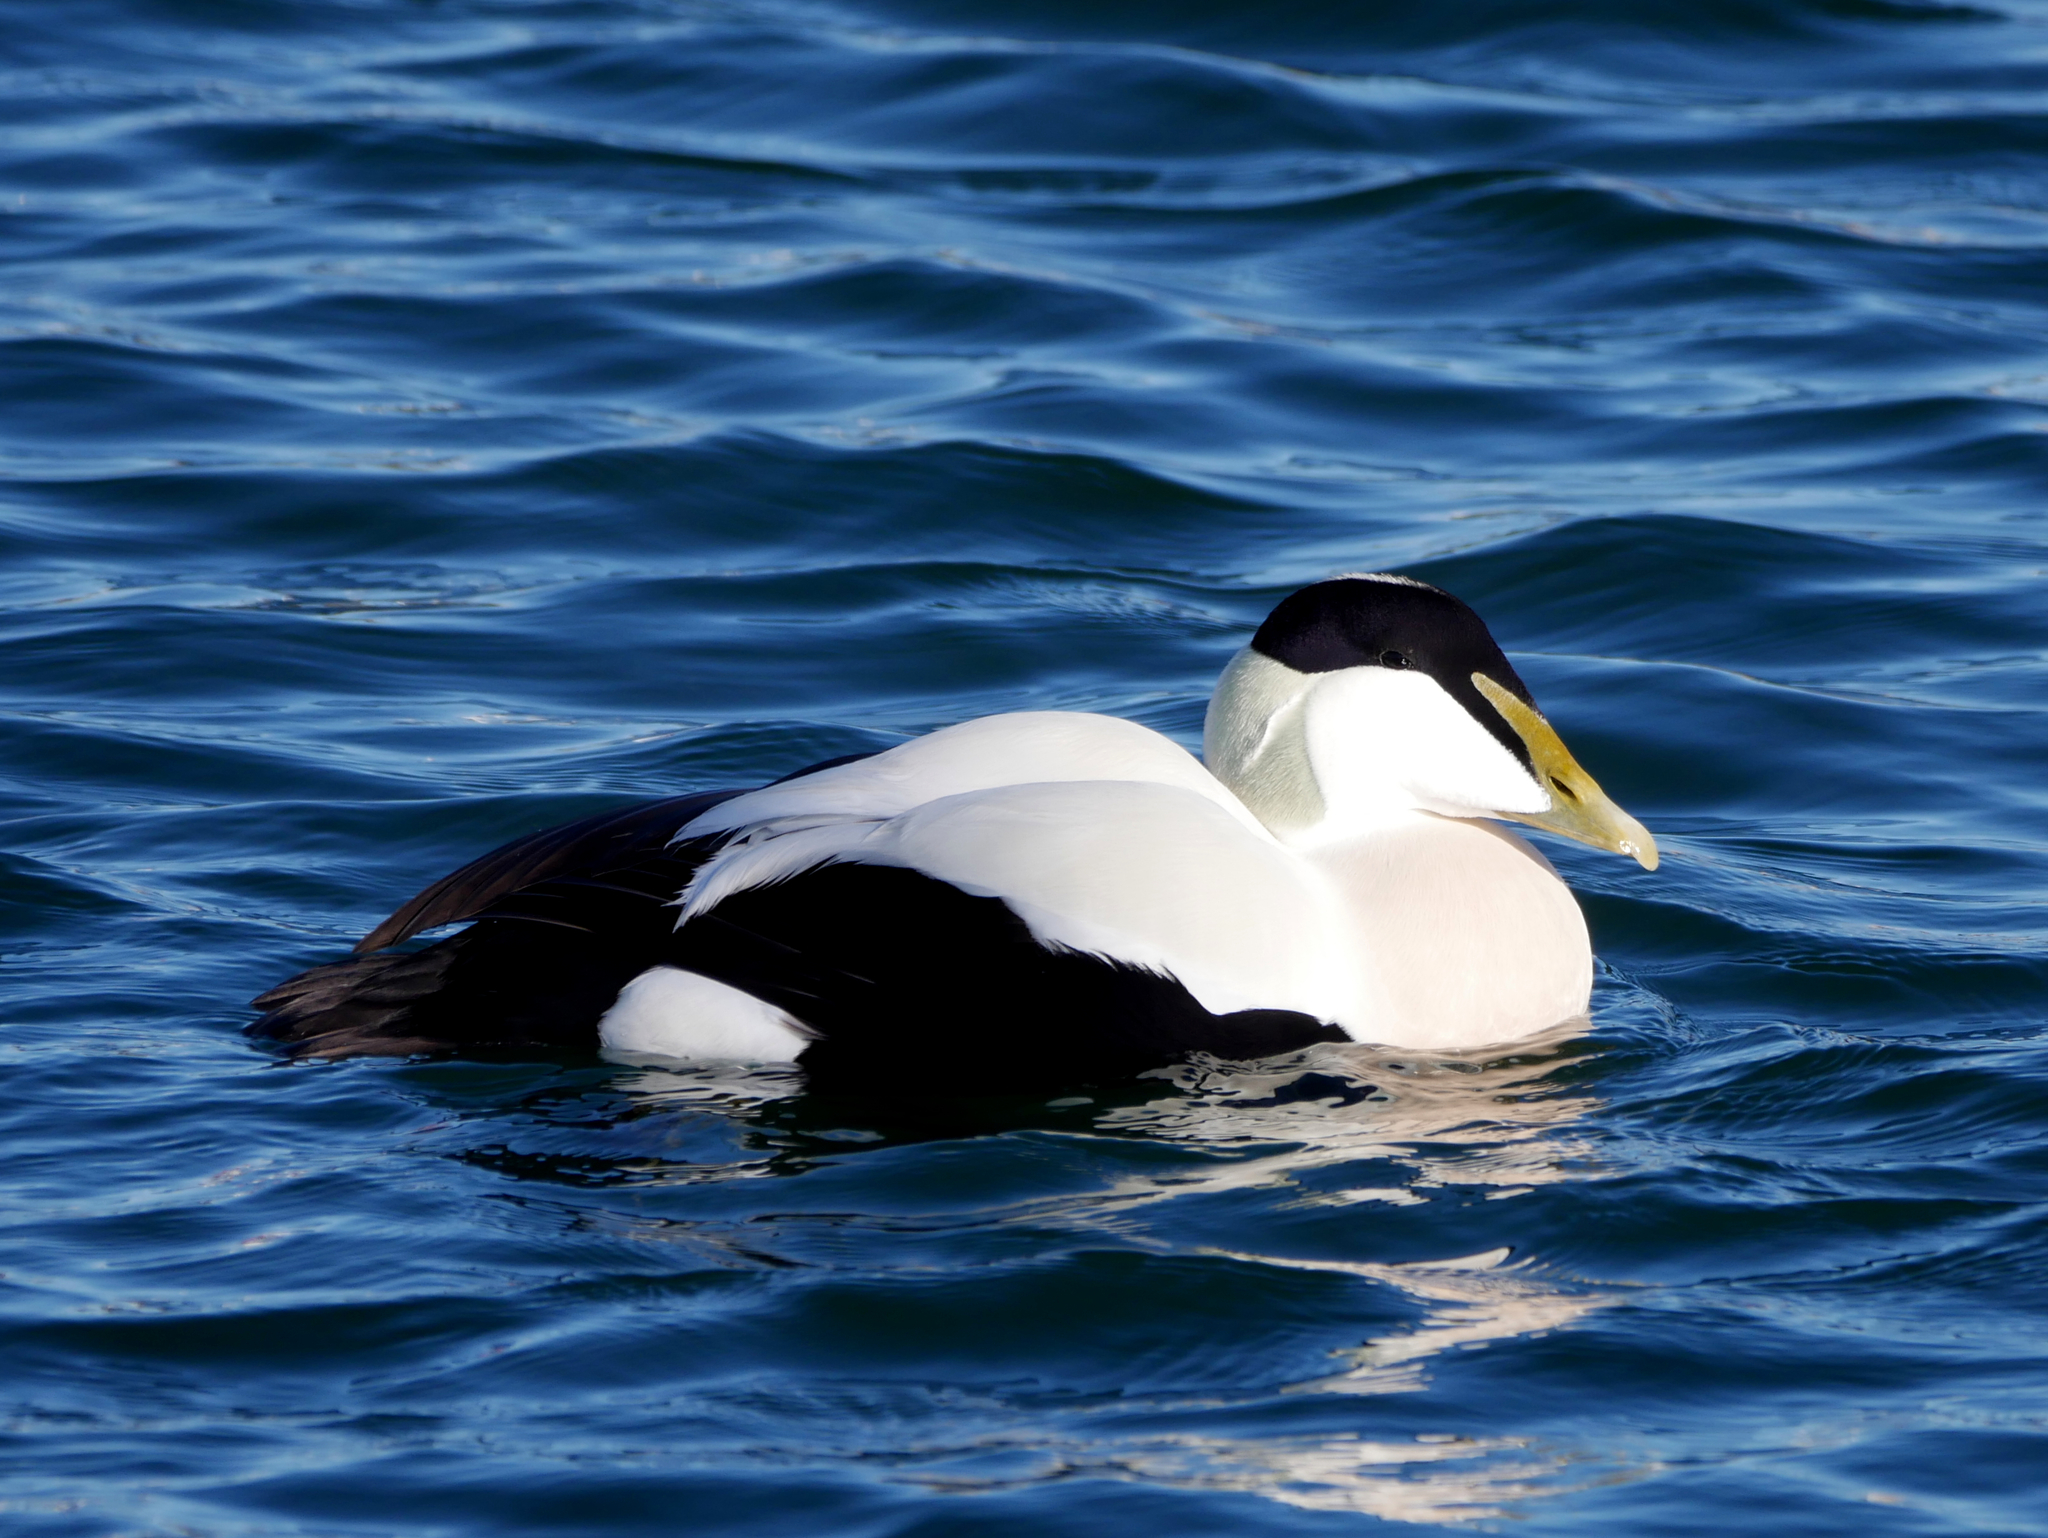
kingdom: Animalia
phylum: Chordata
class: Aves
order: Anseriformes
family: Anatidae
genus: Somateria
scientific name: Somateria mollissima
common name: Common eider
